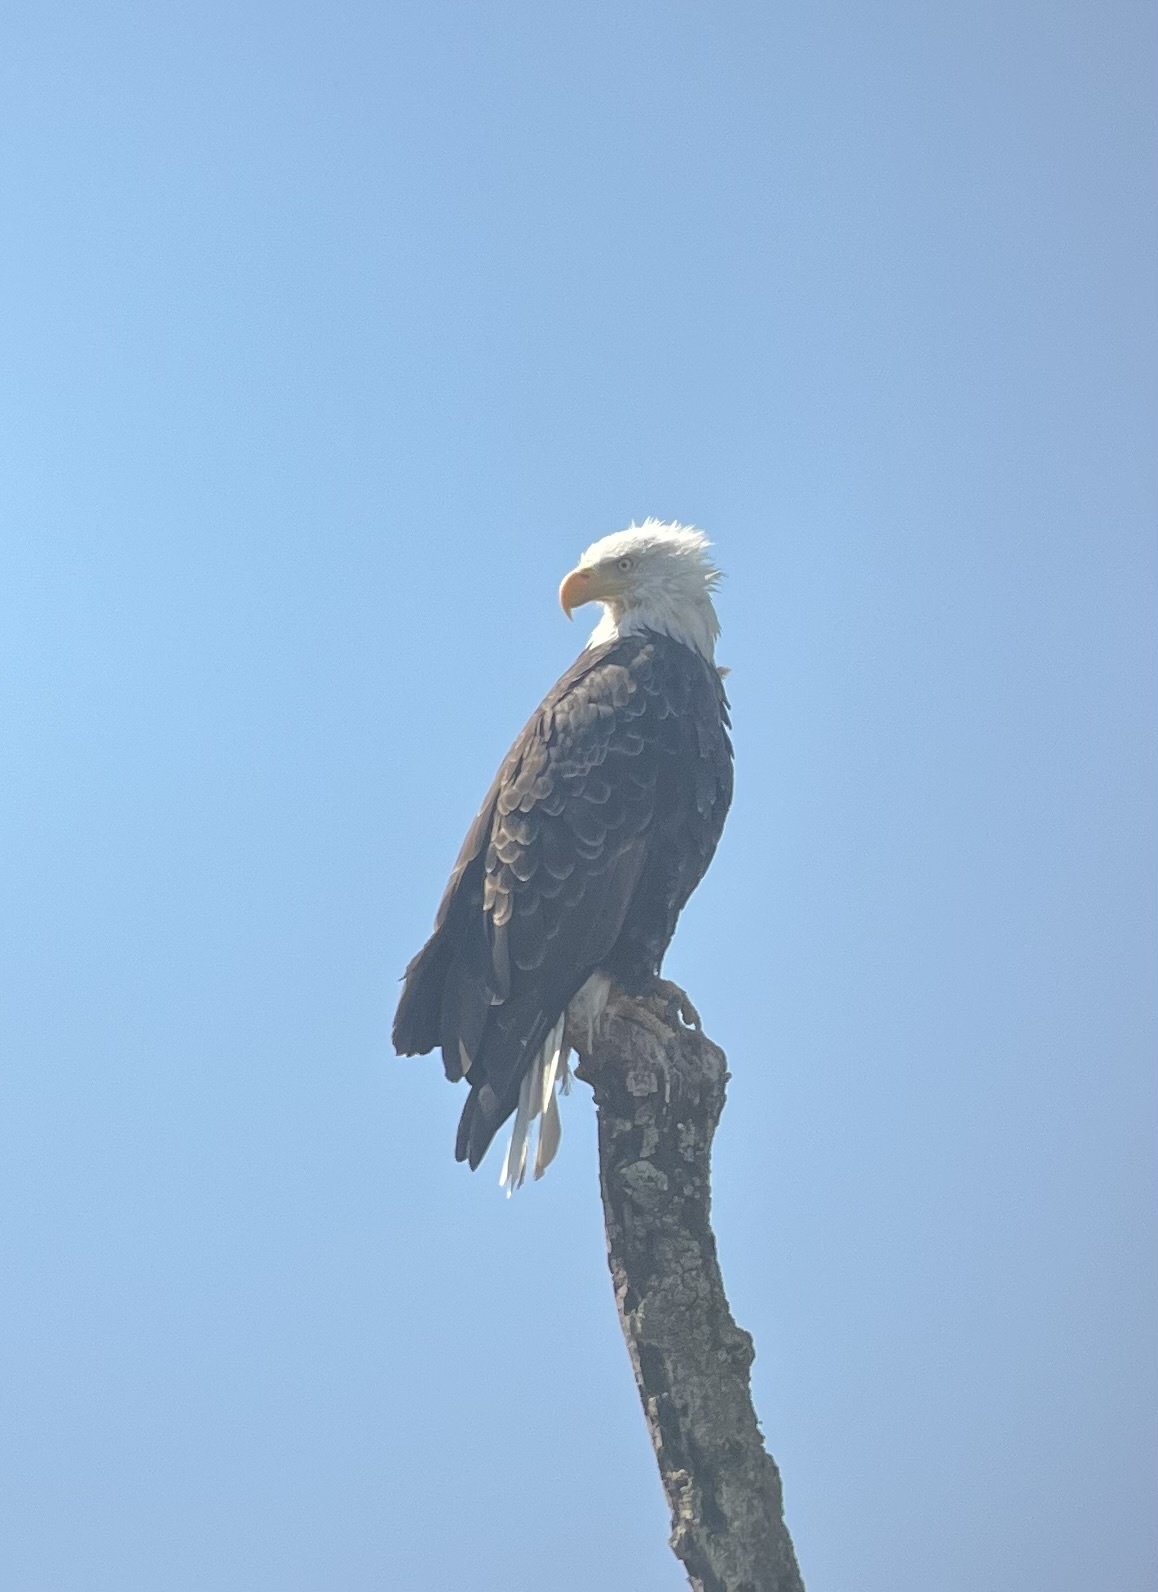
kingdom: Animalia
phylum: Chordata
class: Aves
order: Accipitriformes
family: Accipitridae
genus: Haliaeetus
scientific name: Haliaeetus leucocephalus
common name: Bald eagle
